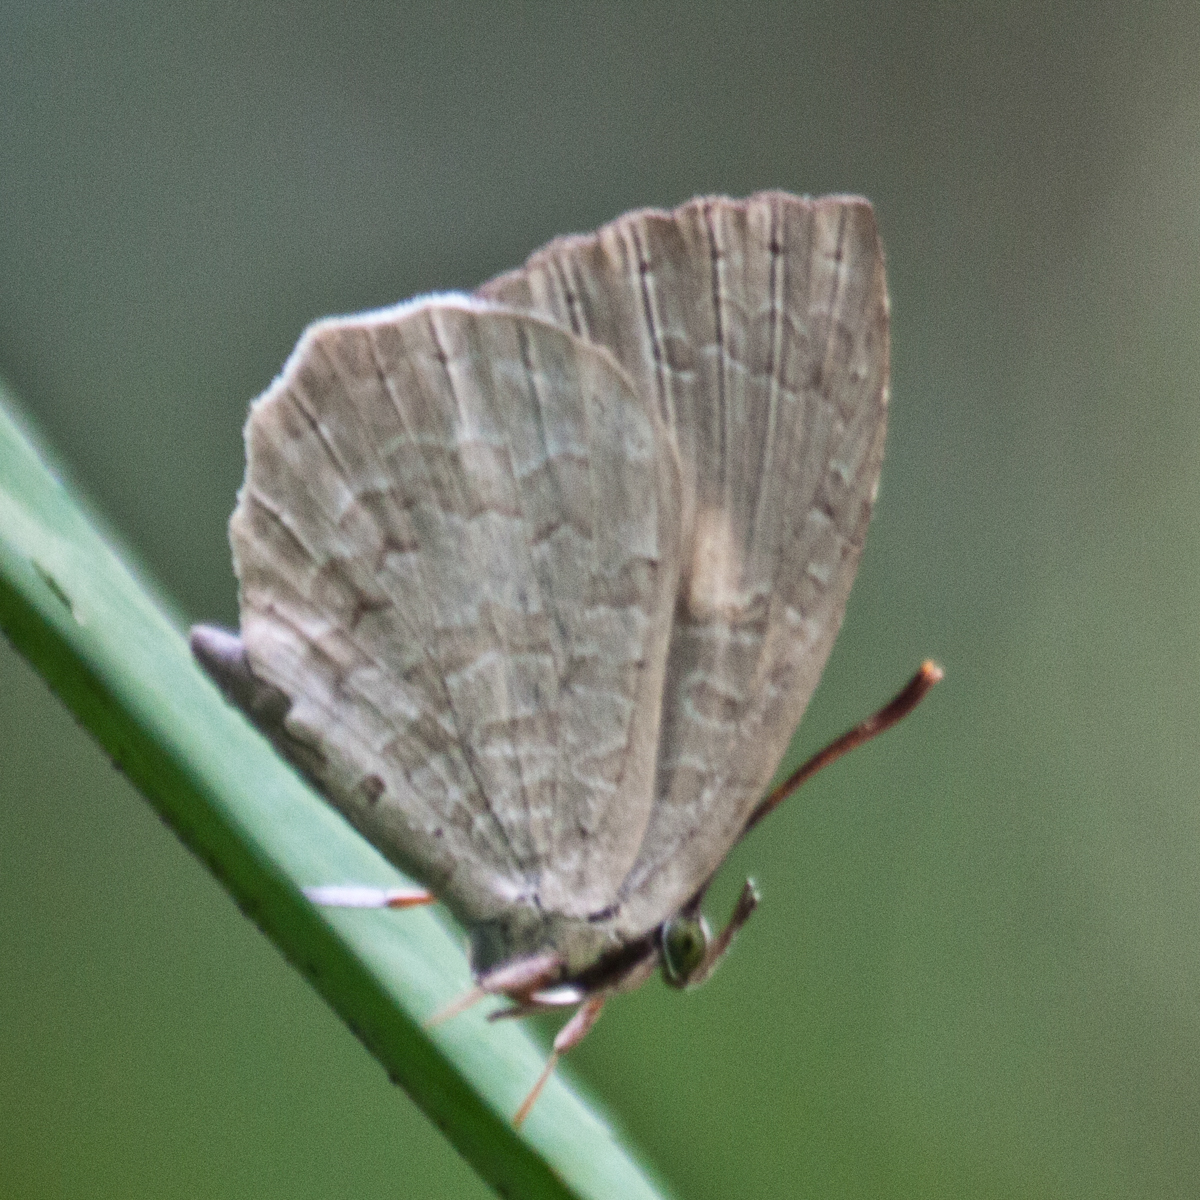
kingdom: Animalia
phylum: Arthropoda
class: Insecta
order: Lepidoptera
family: Lycaenidae
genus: Miletus
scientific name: Miletus chinensis
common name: Common brownie
